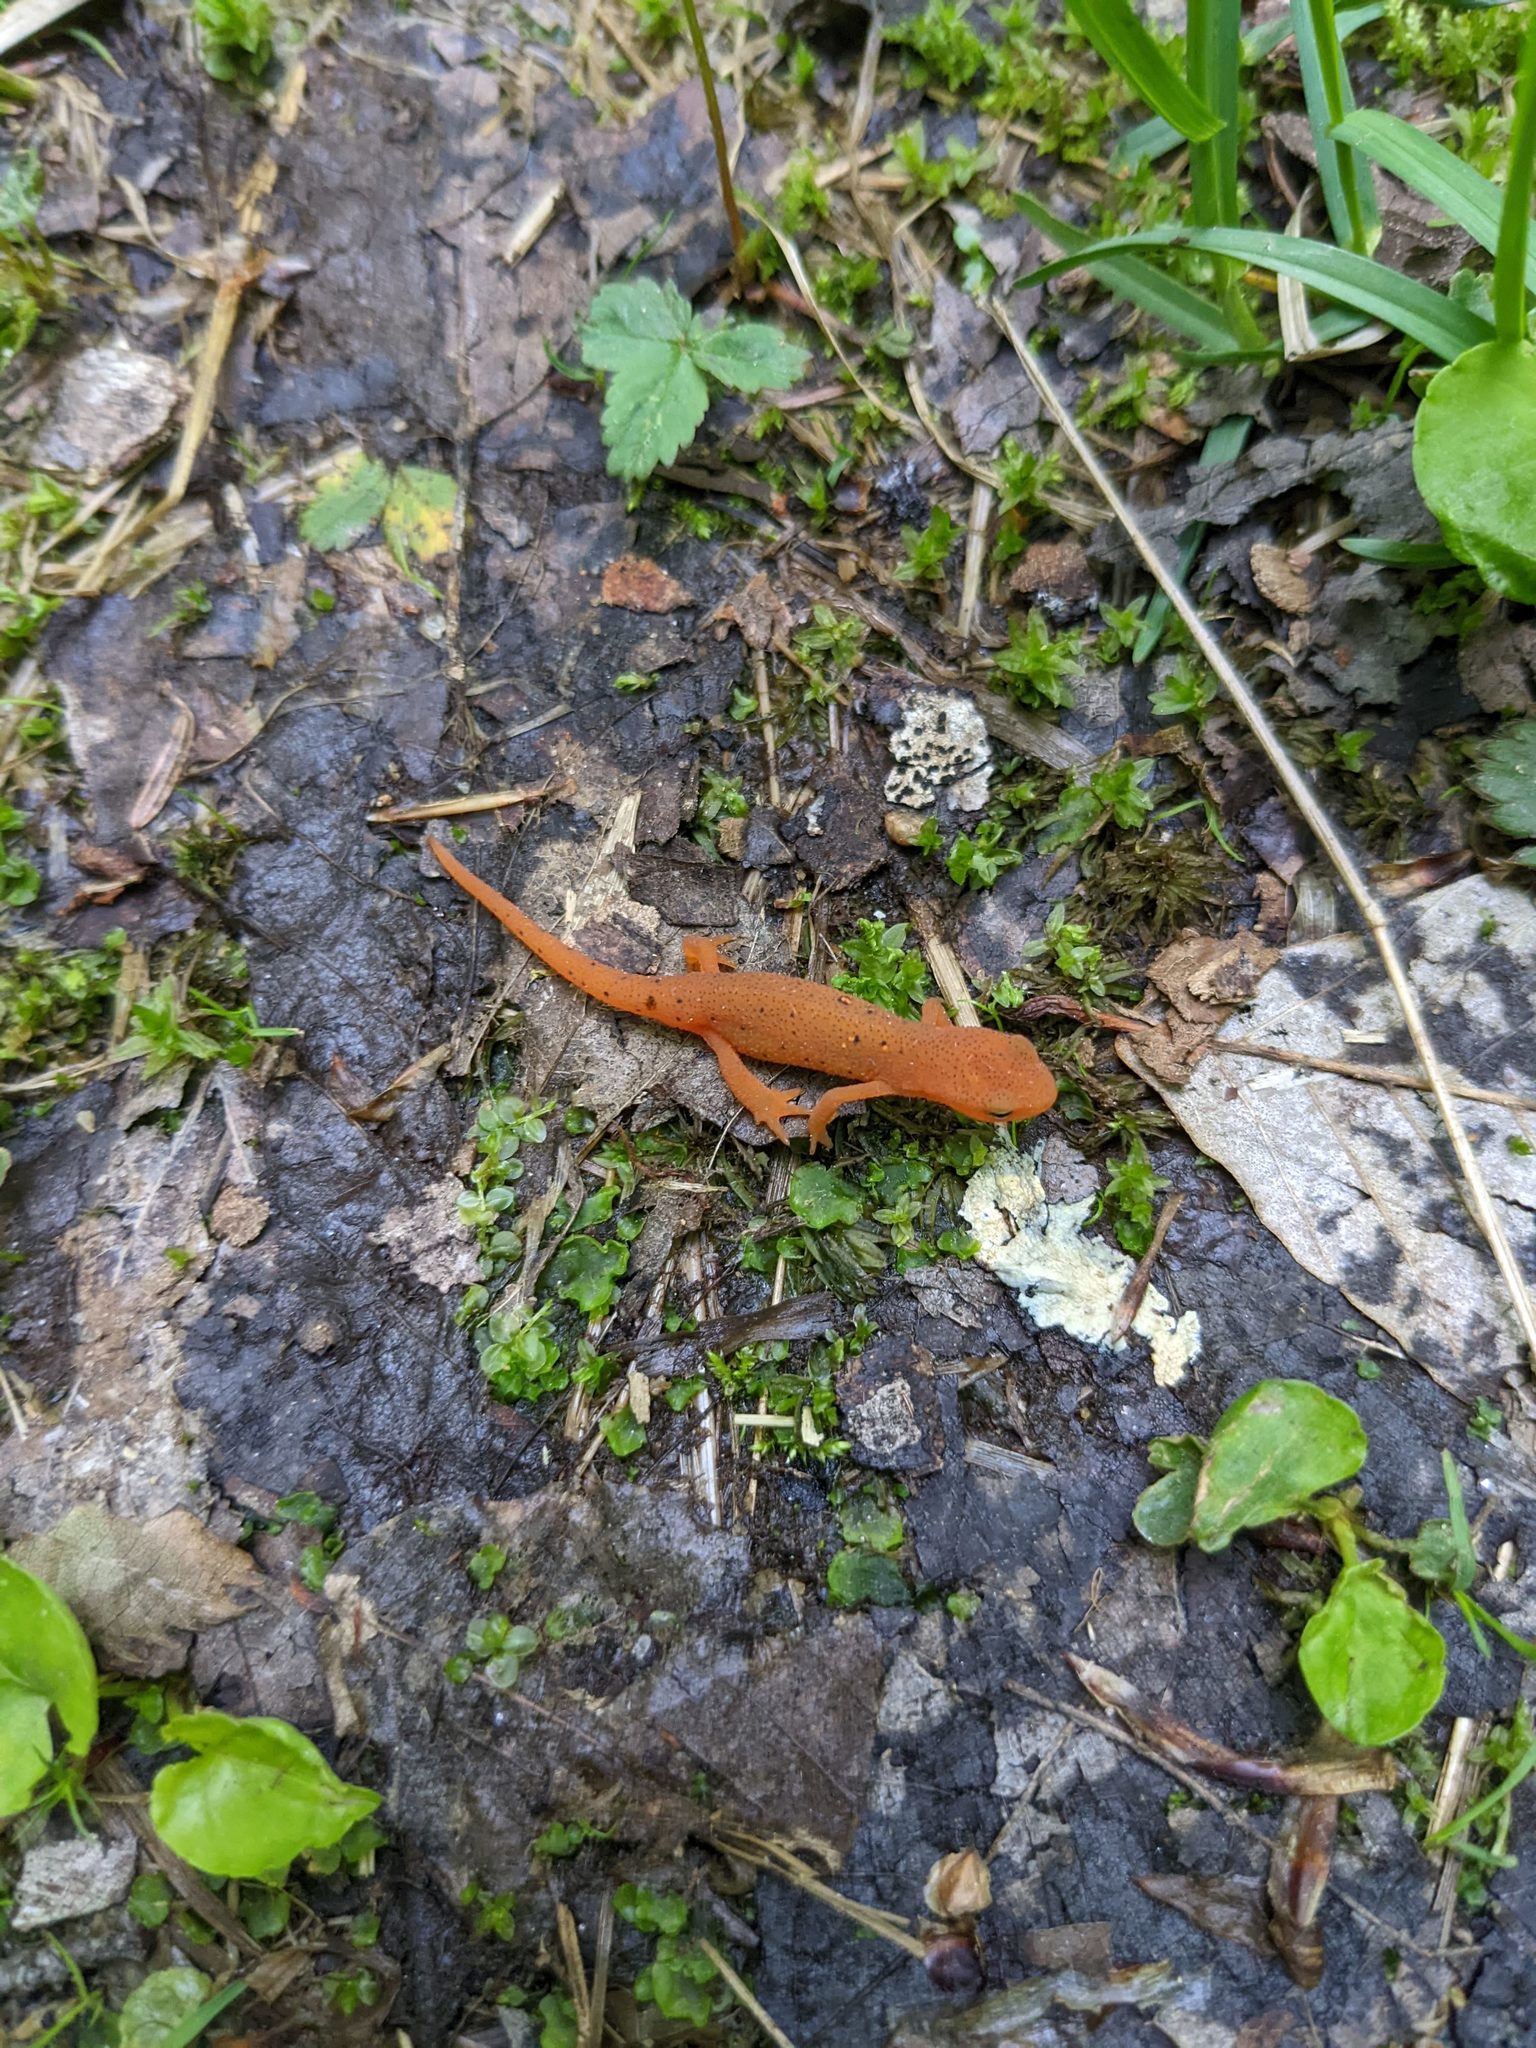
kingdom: Animalia
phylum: Chordata
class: Amphibia
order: Caudata
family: Salamandridae
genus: Notophthalmus
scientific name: Notophthalmus viridescens
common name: Eastern newt
